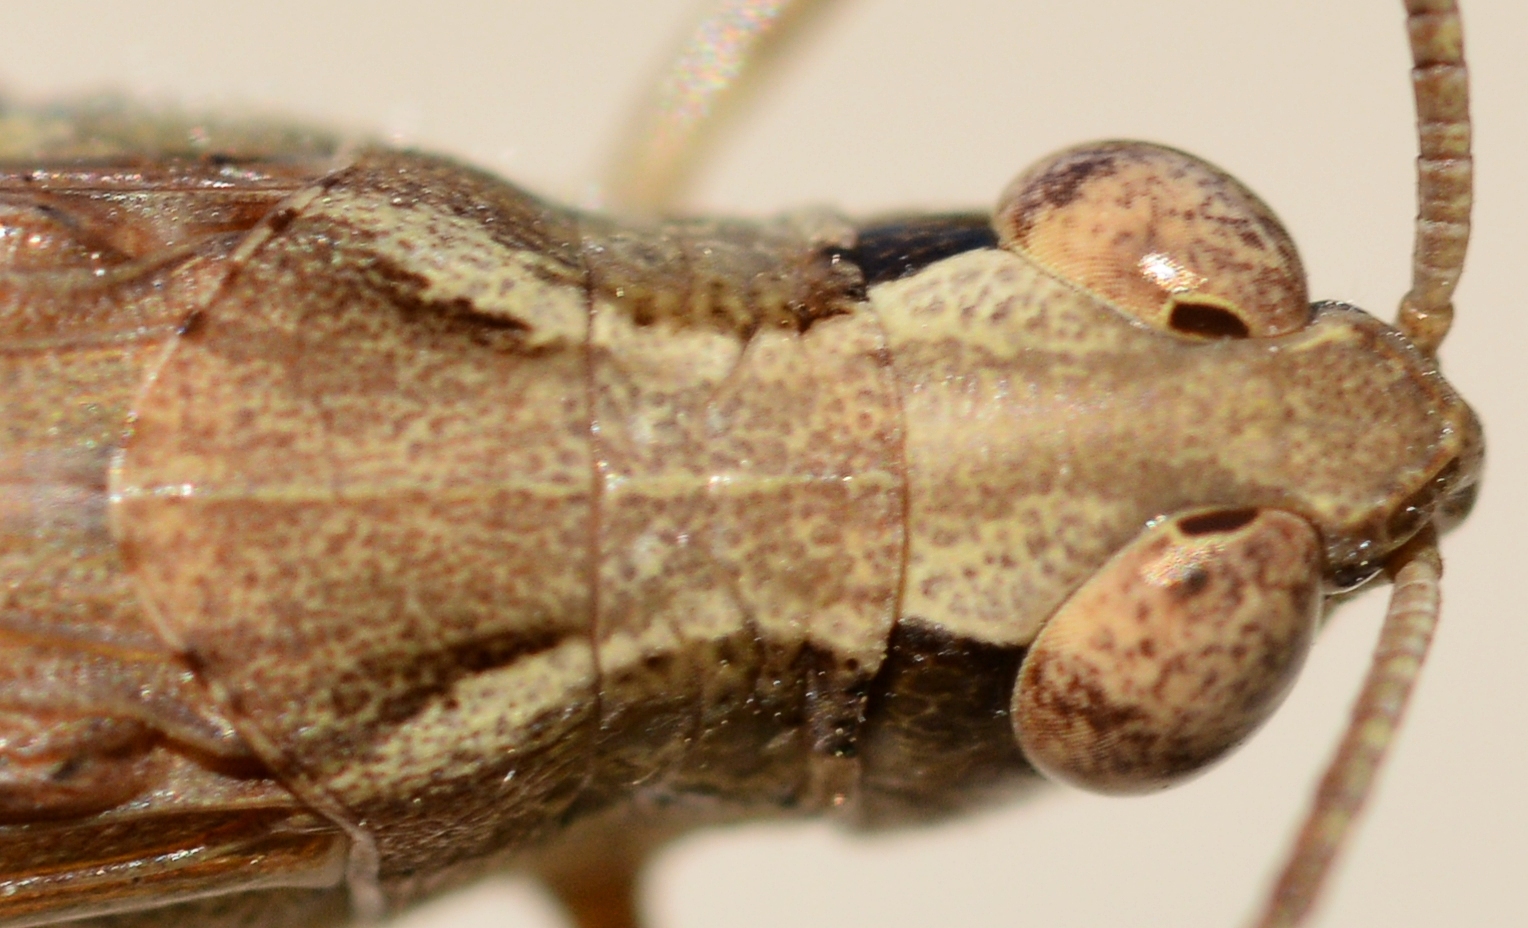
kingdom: Animalia
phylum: Arthropoda
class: Insecta
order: Orthoptera
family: Acrididae
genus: Aiolopus
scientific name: Aiolopus puissanti
